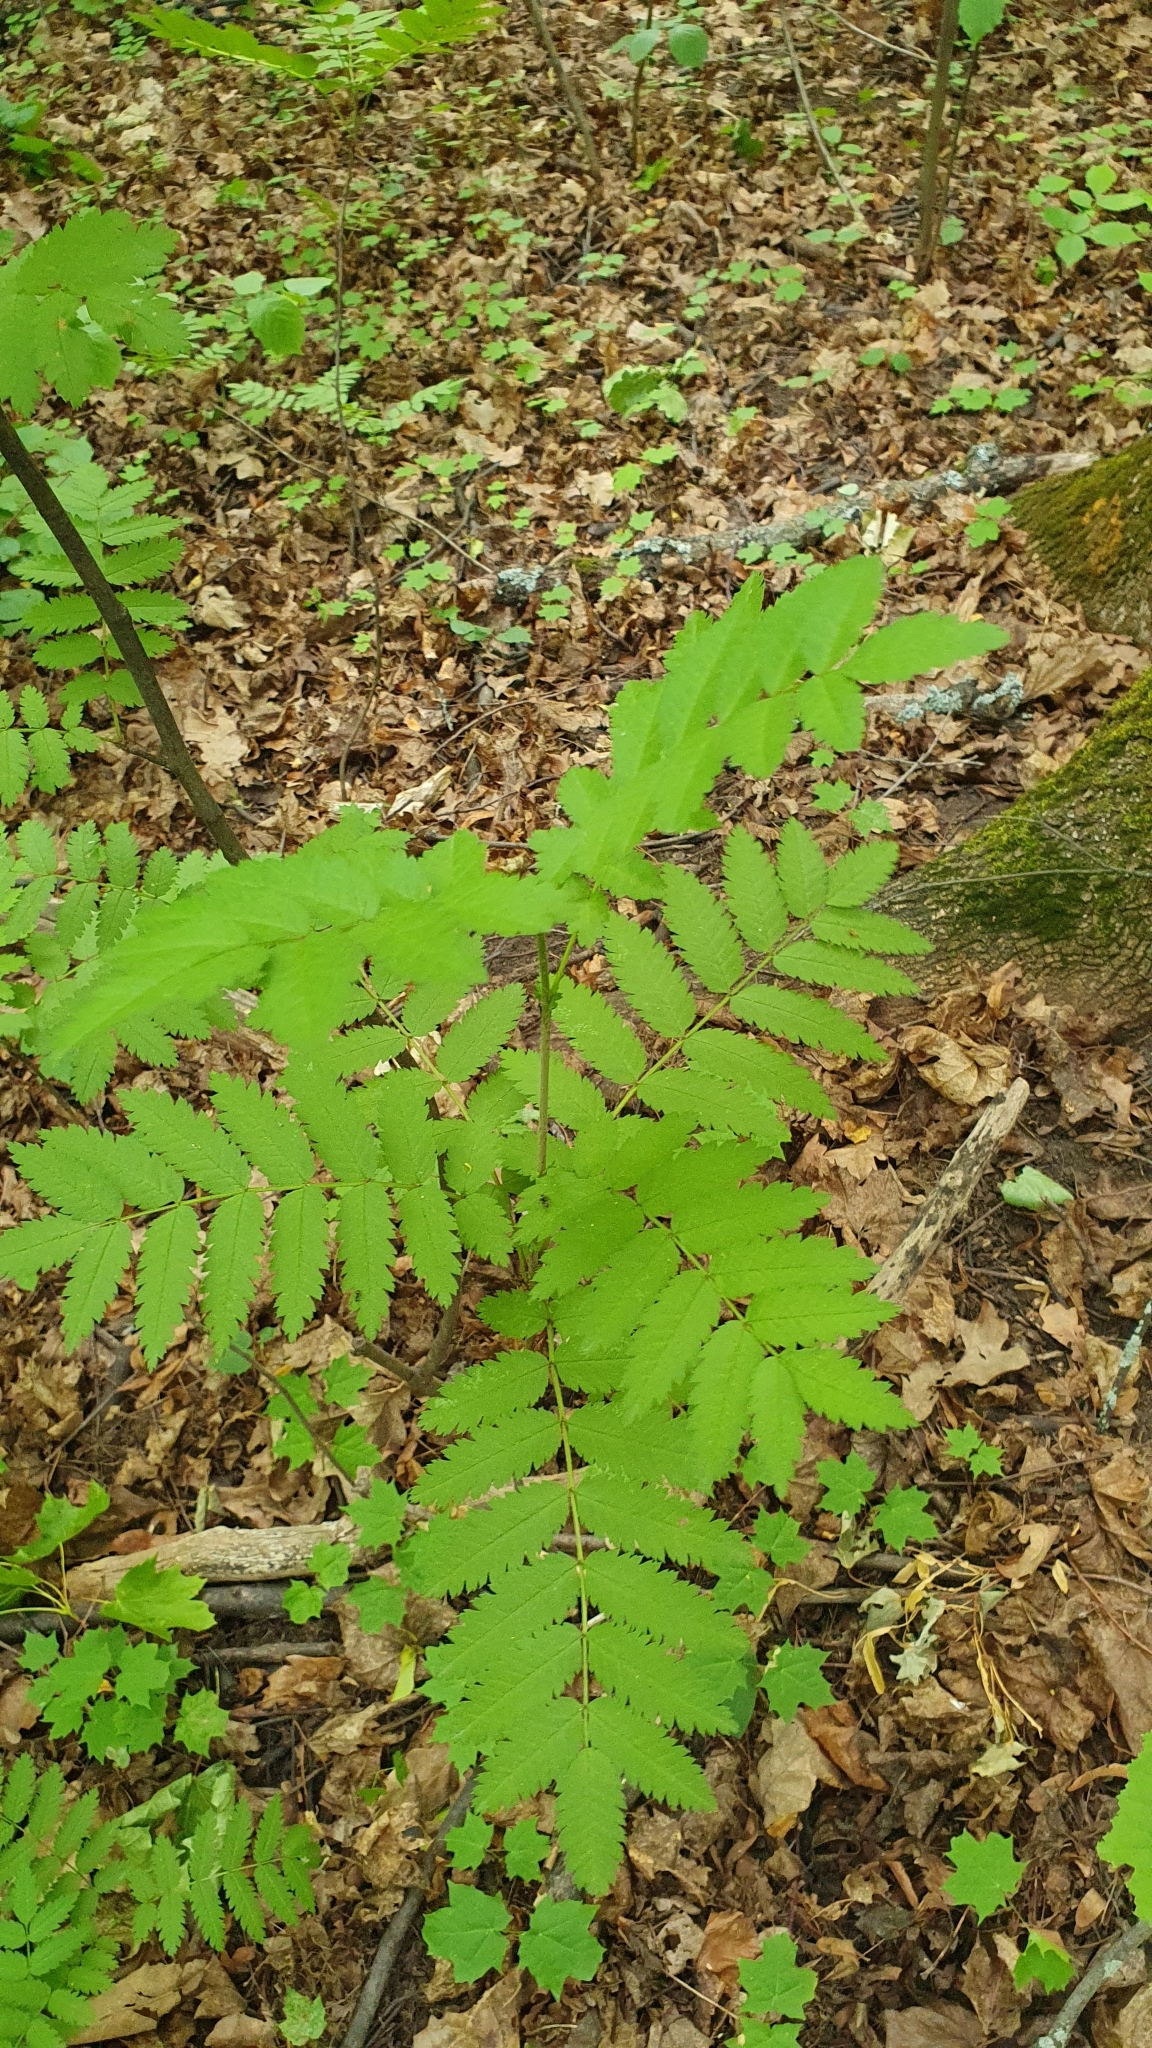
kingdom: Plantae
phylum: Tracheophyta
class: Magnoliopsida
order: Rosales
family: Rosaceae
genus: Sorbus
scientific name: Sorbus aucuparia
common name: Rowan
